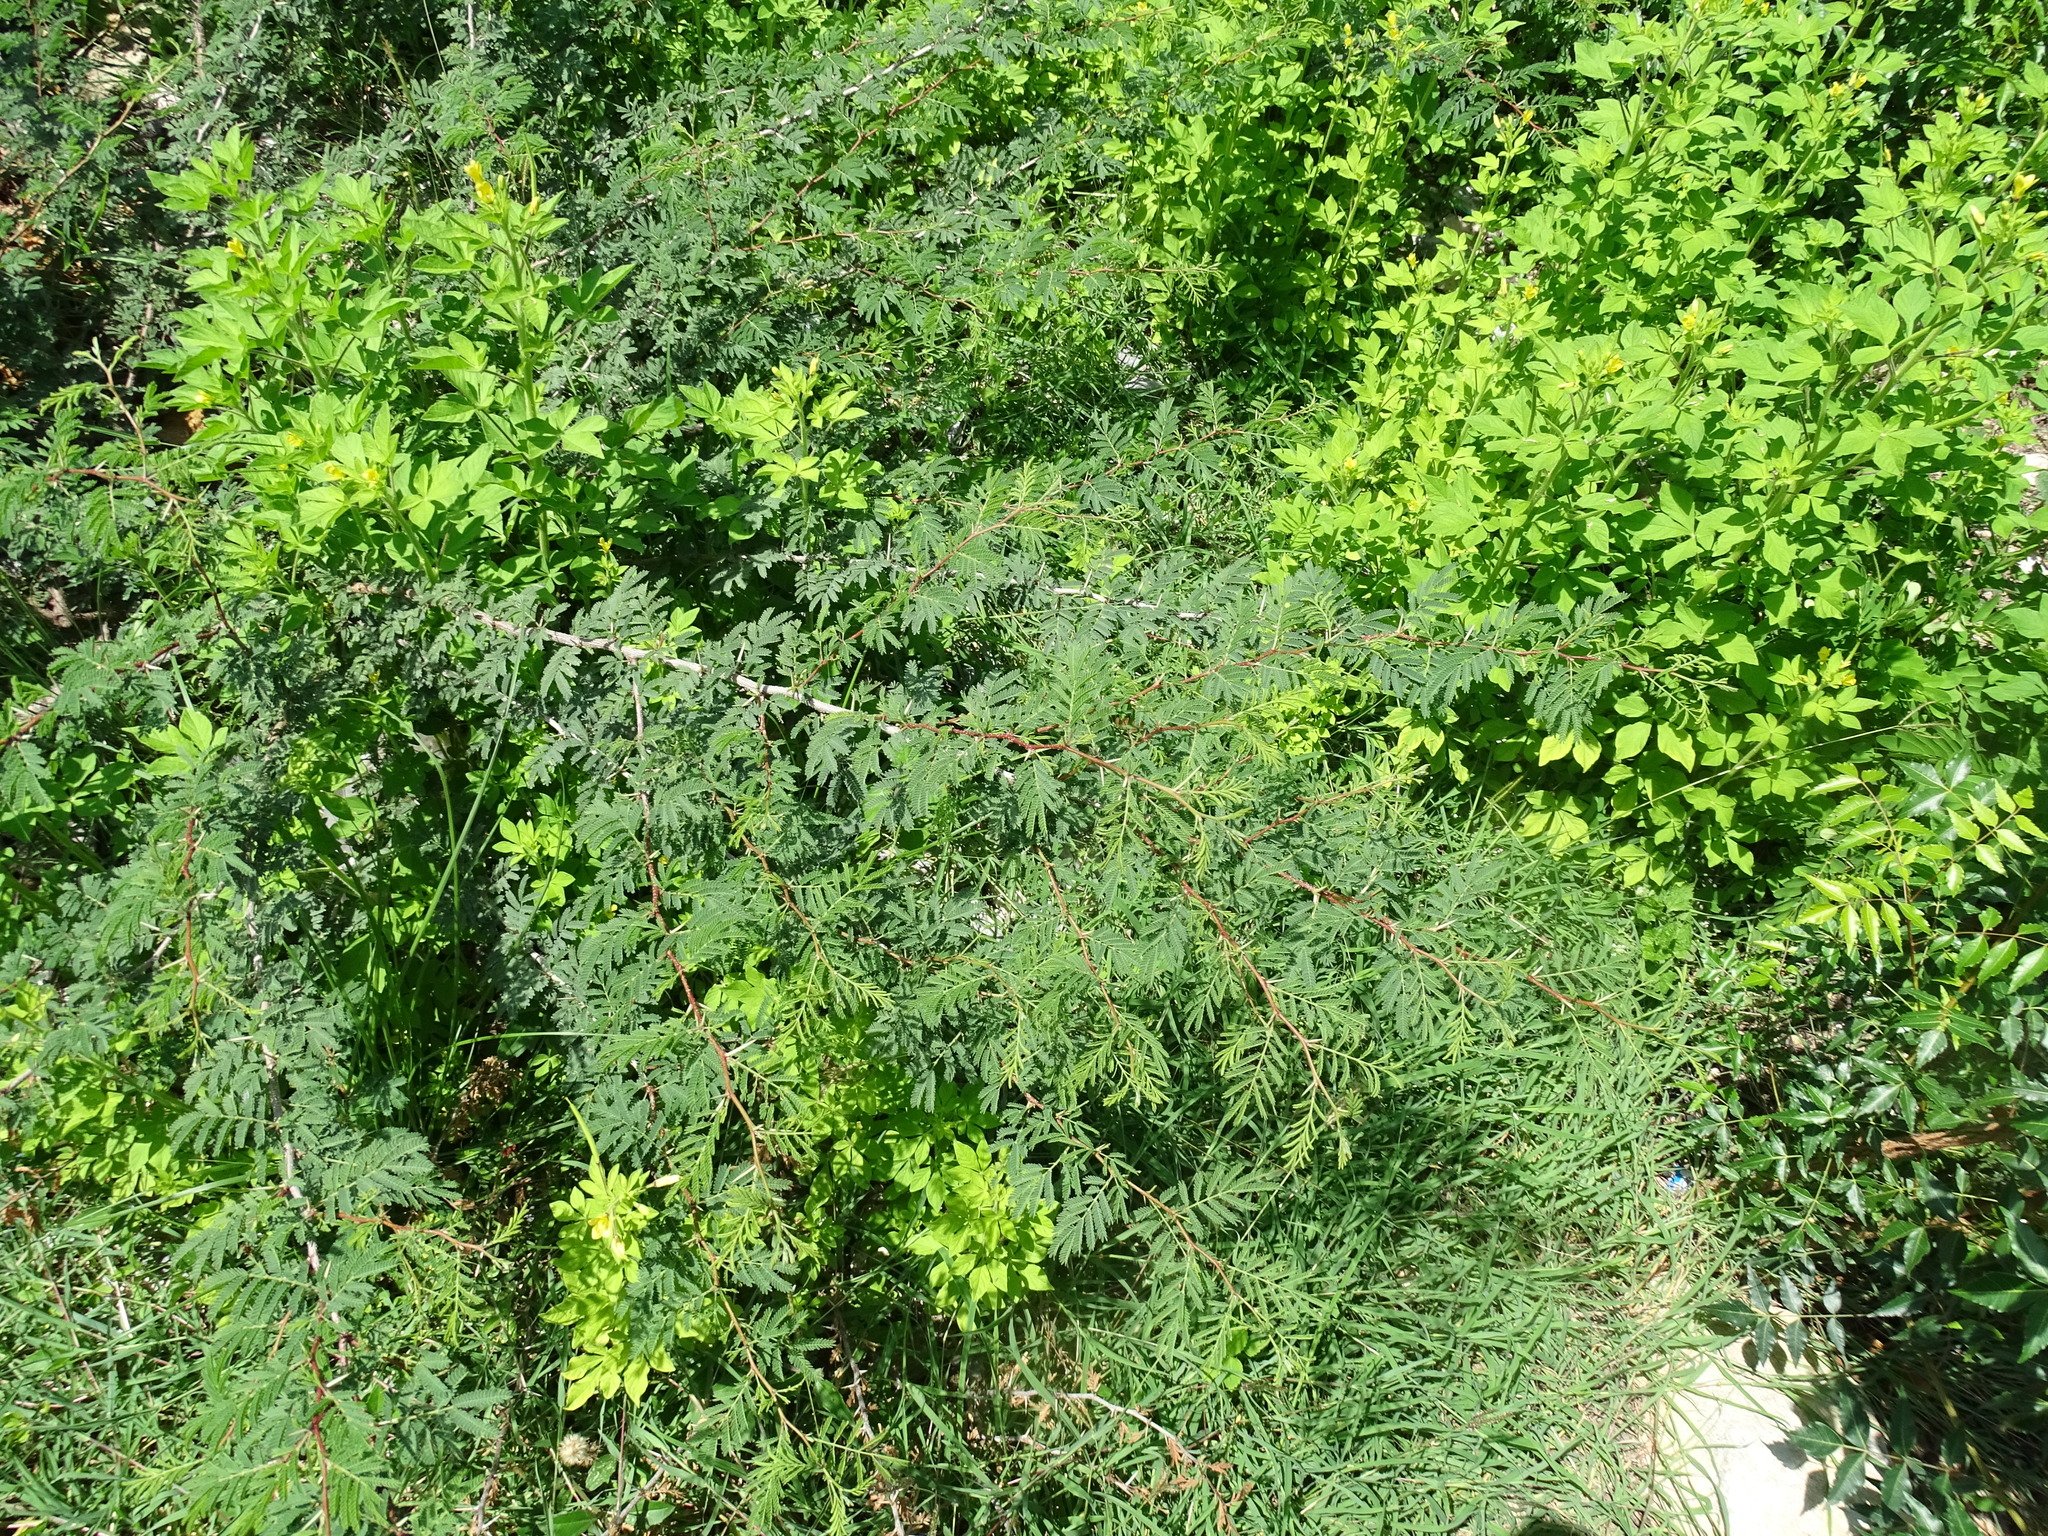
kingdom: Plantae
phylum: Tracheophyta
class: Magnoliopsida
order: Fabales
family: Fabaceae
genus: Vachellia
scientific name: Vachellia farnesiana
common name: Sweet acacia
